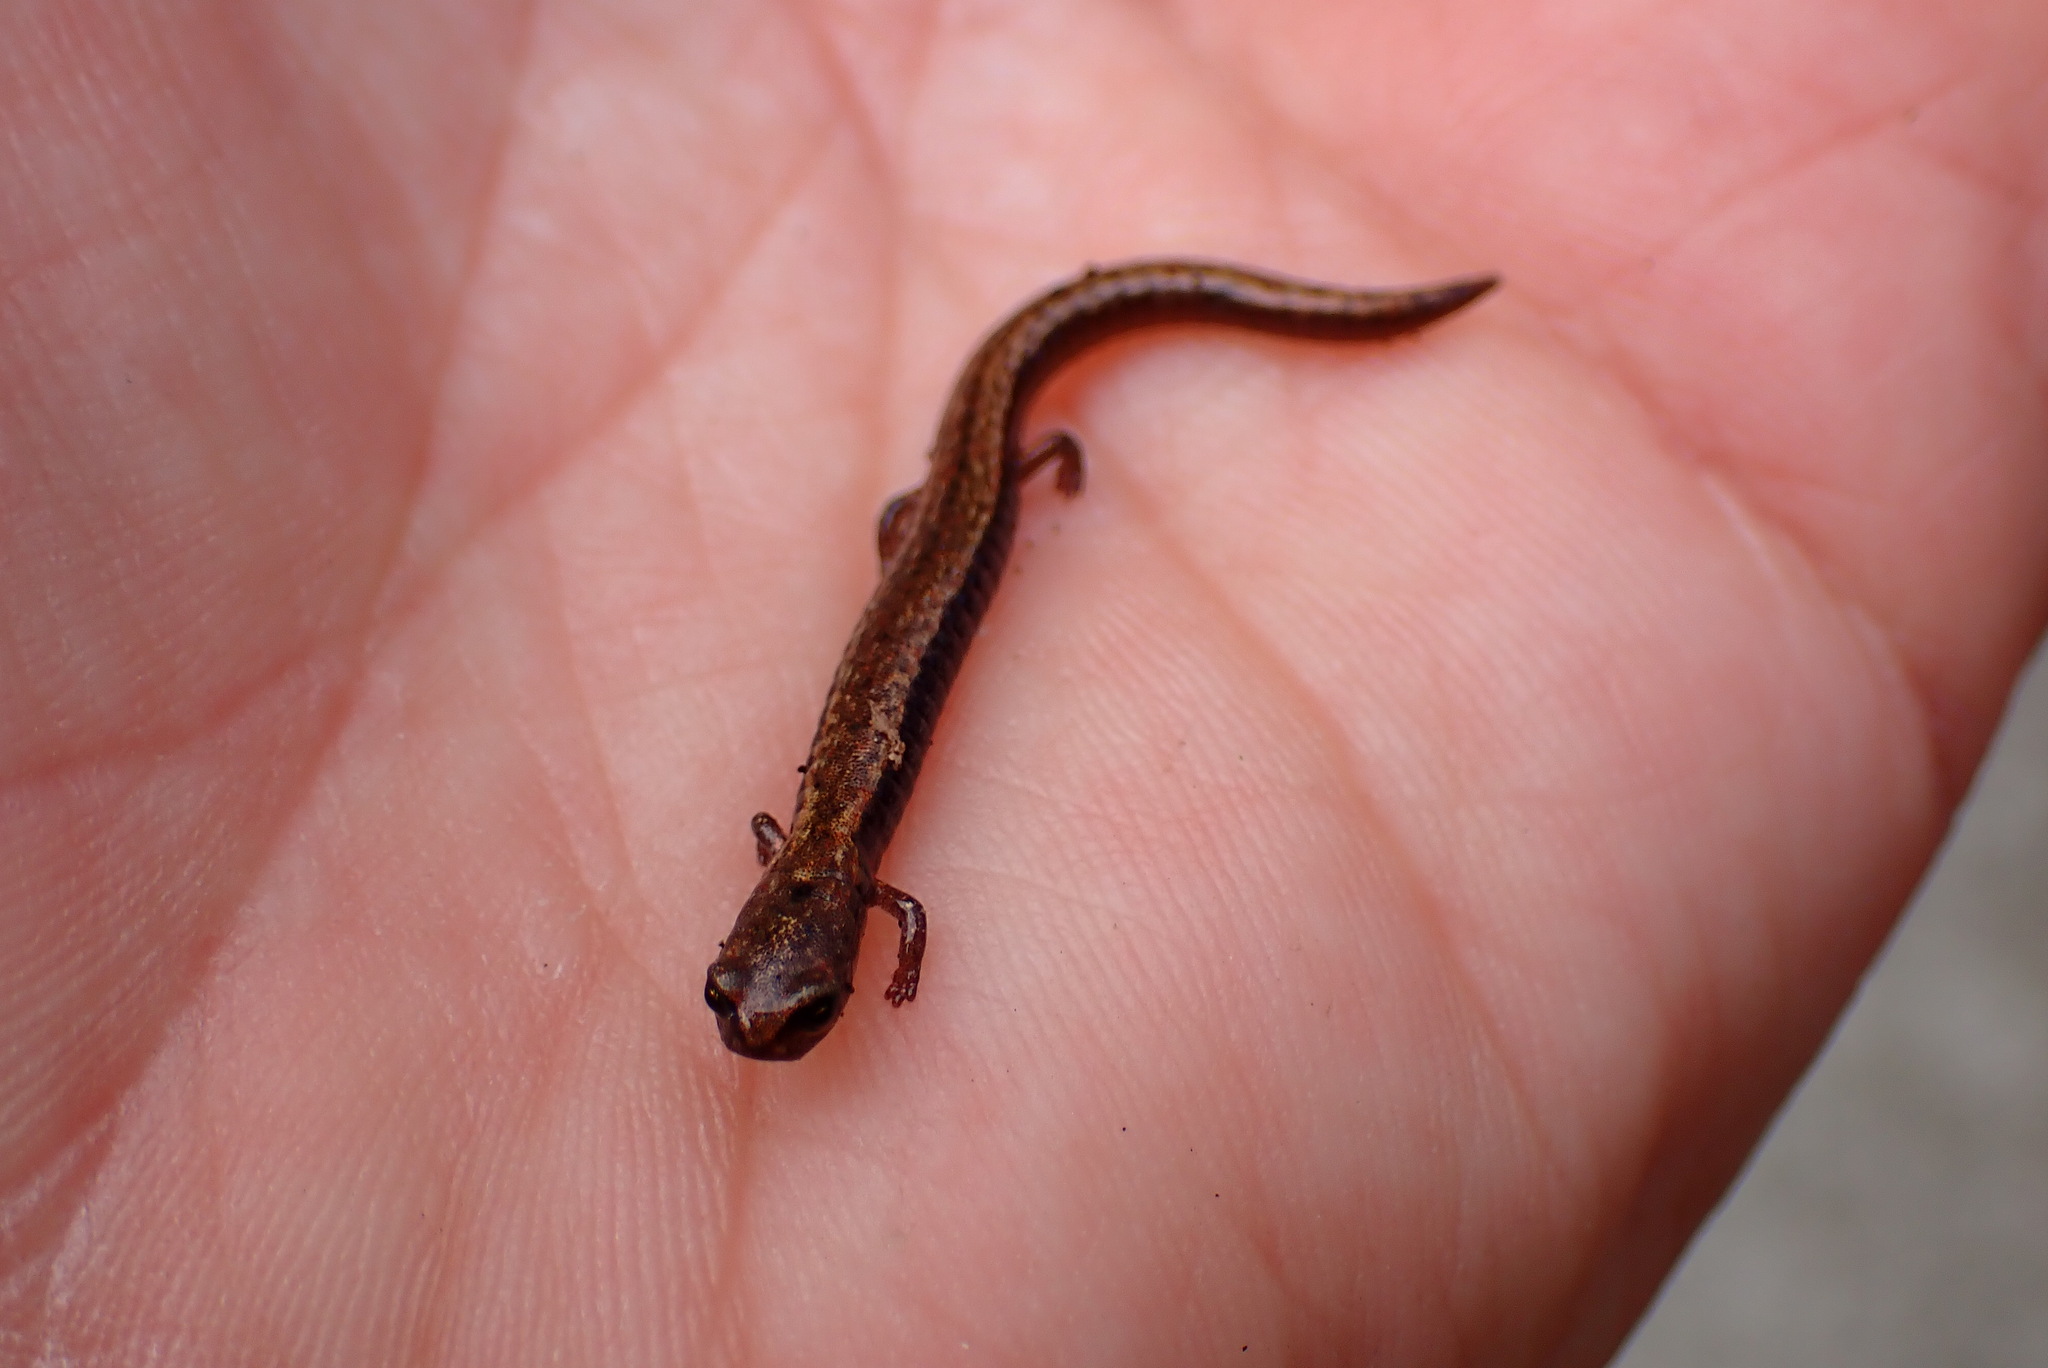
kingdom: Animalia
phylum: Chordata
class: Amphibia
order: Caudata
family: Plethodontidae
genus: Batrachoseps
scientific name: Batrachoseps attenuatus
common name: California slender salamander
